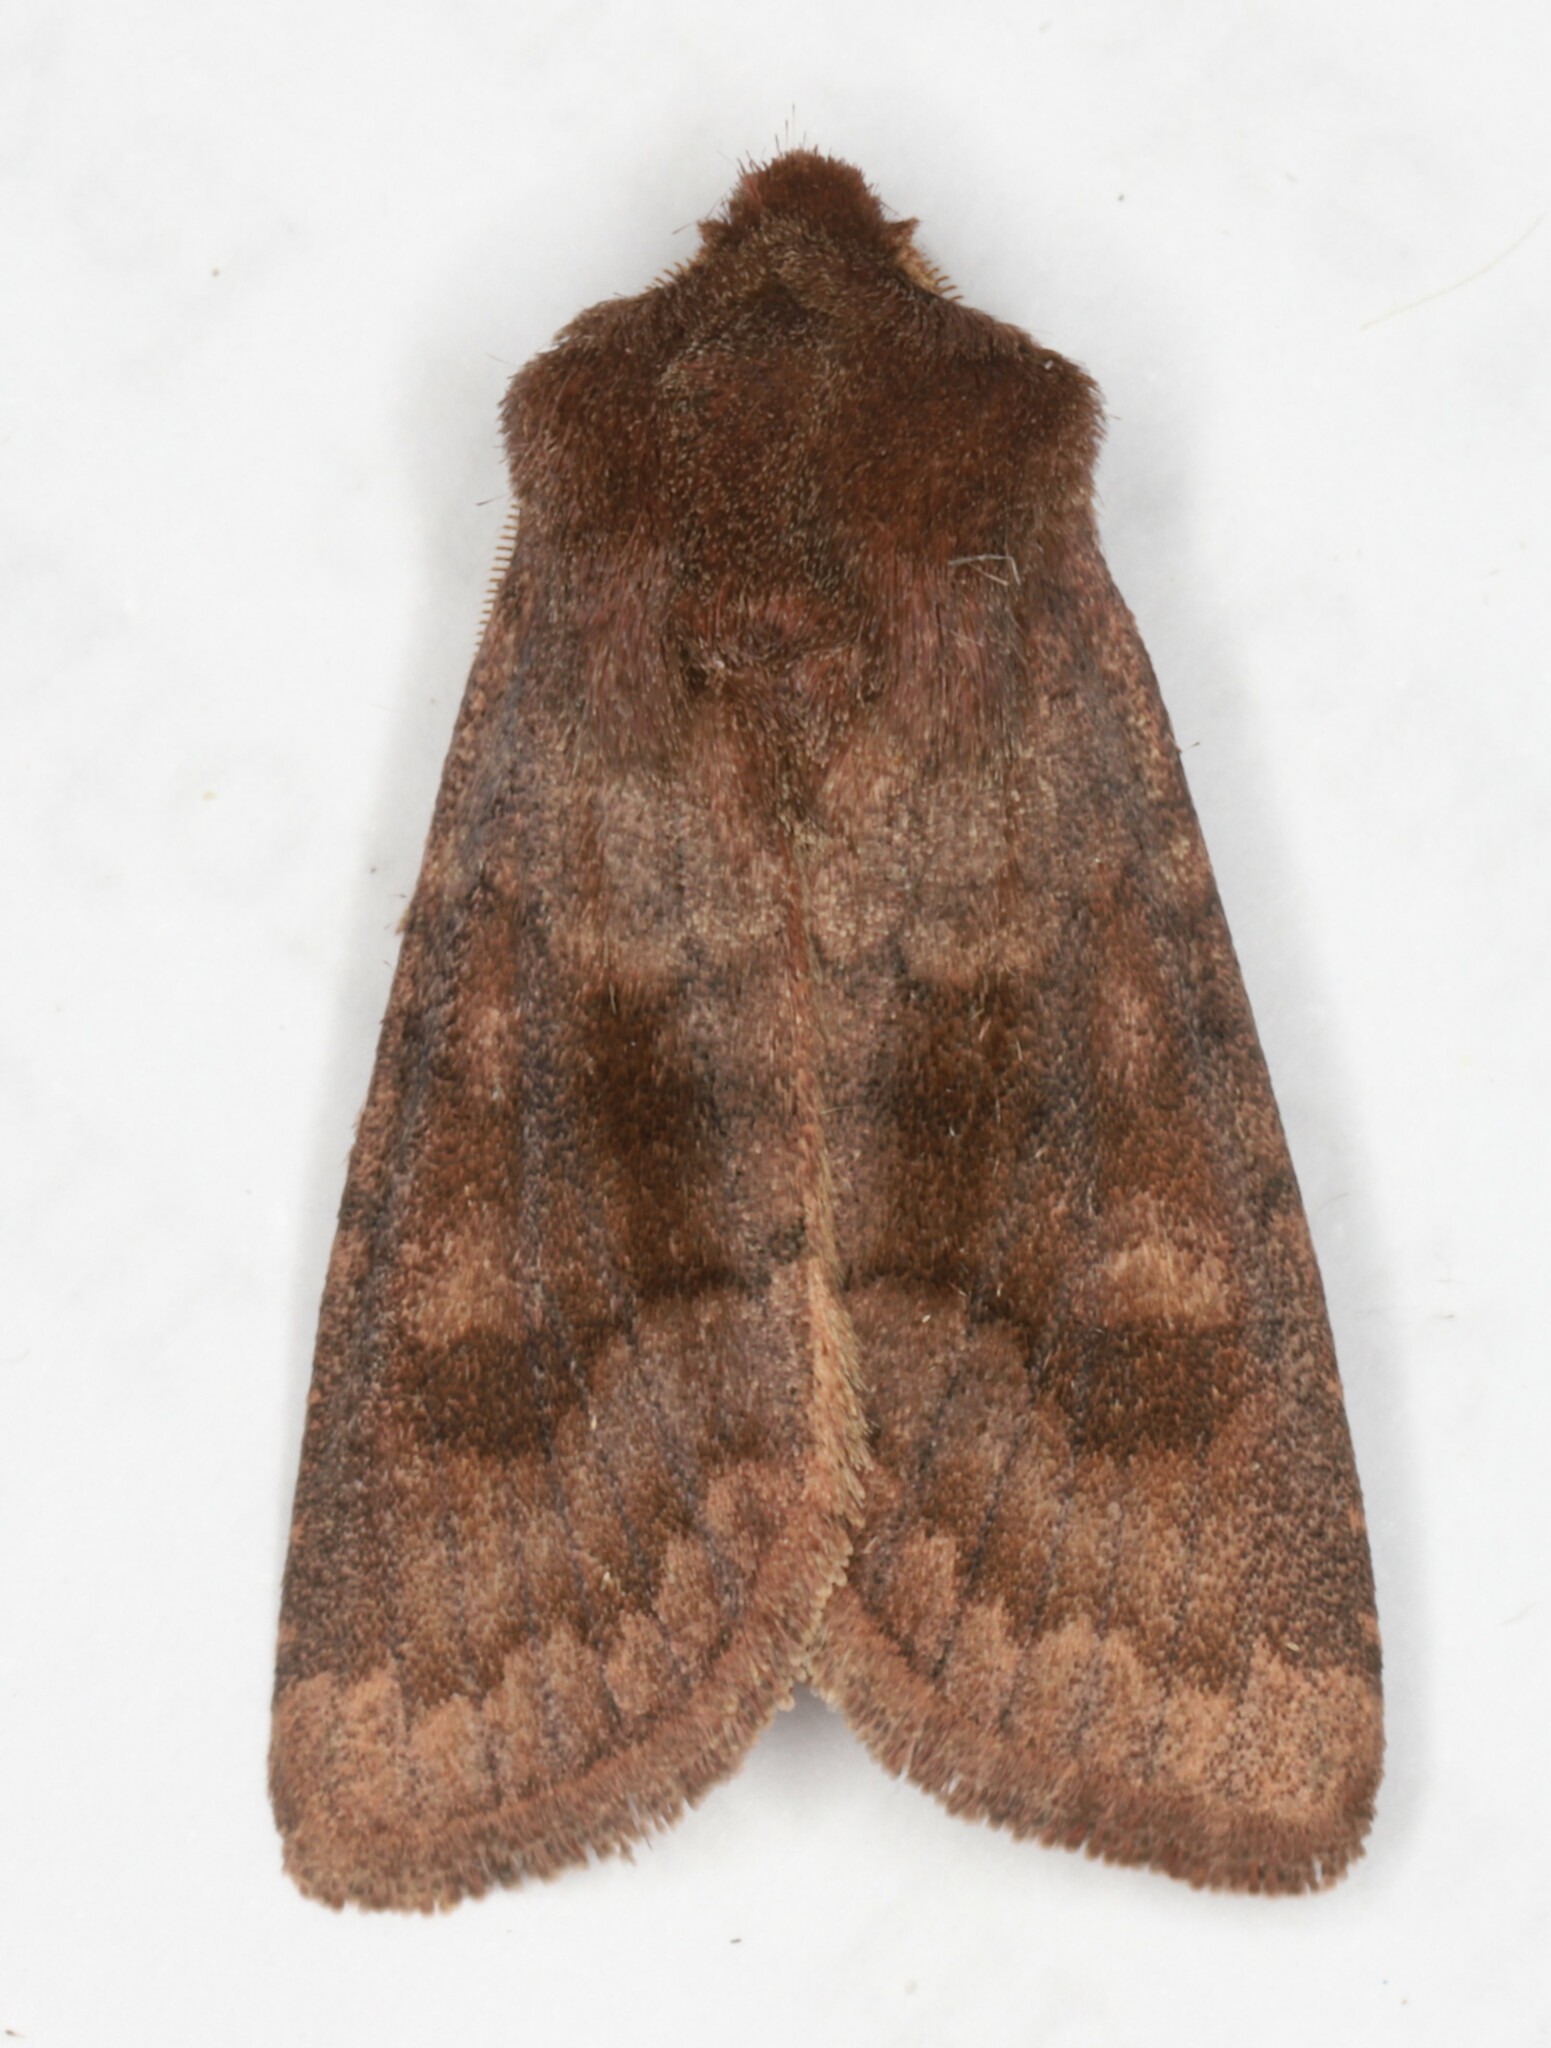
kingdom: Animalia
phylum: Arthropoda
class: Insecta
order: Lepidoptera
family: Noctuidae
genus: Nephelodes
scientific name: Nephelodes minians
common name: Bronzed cutworm
